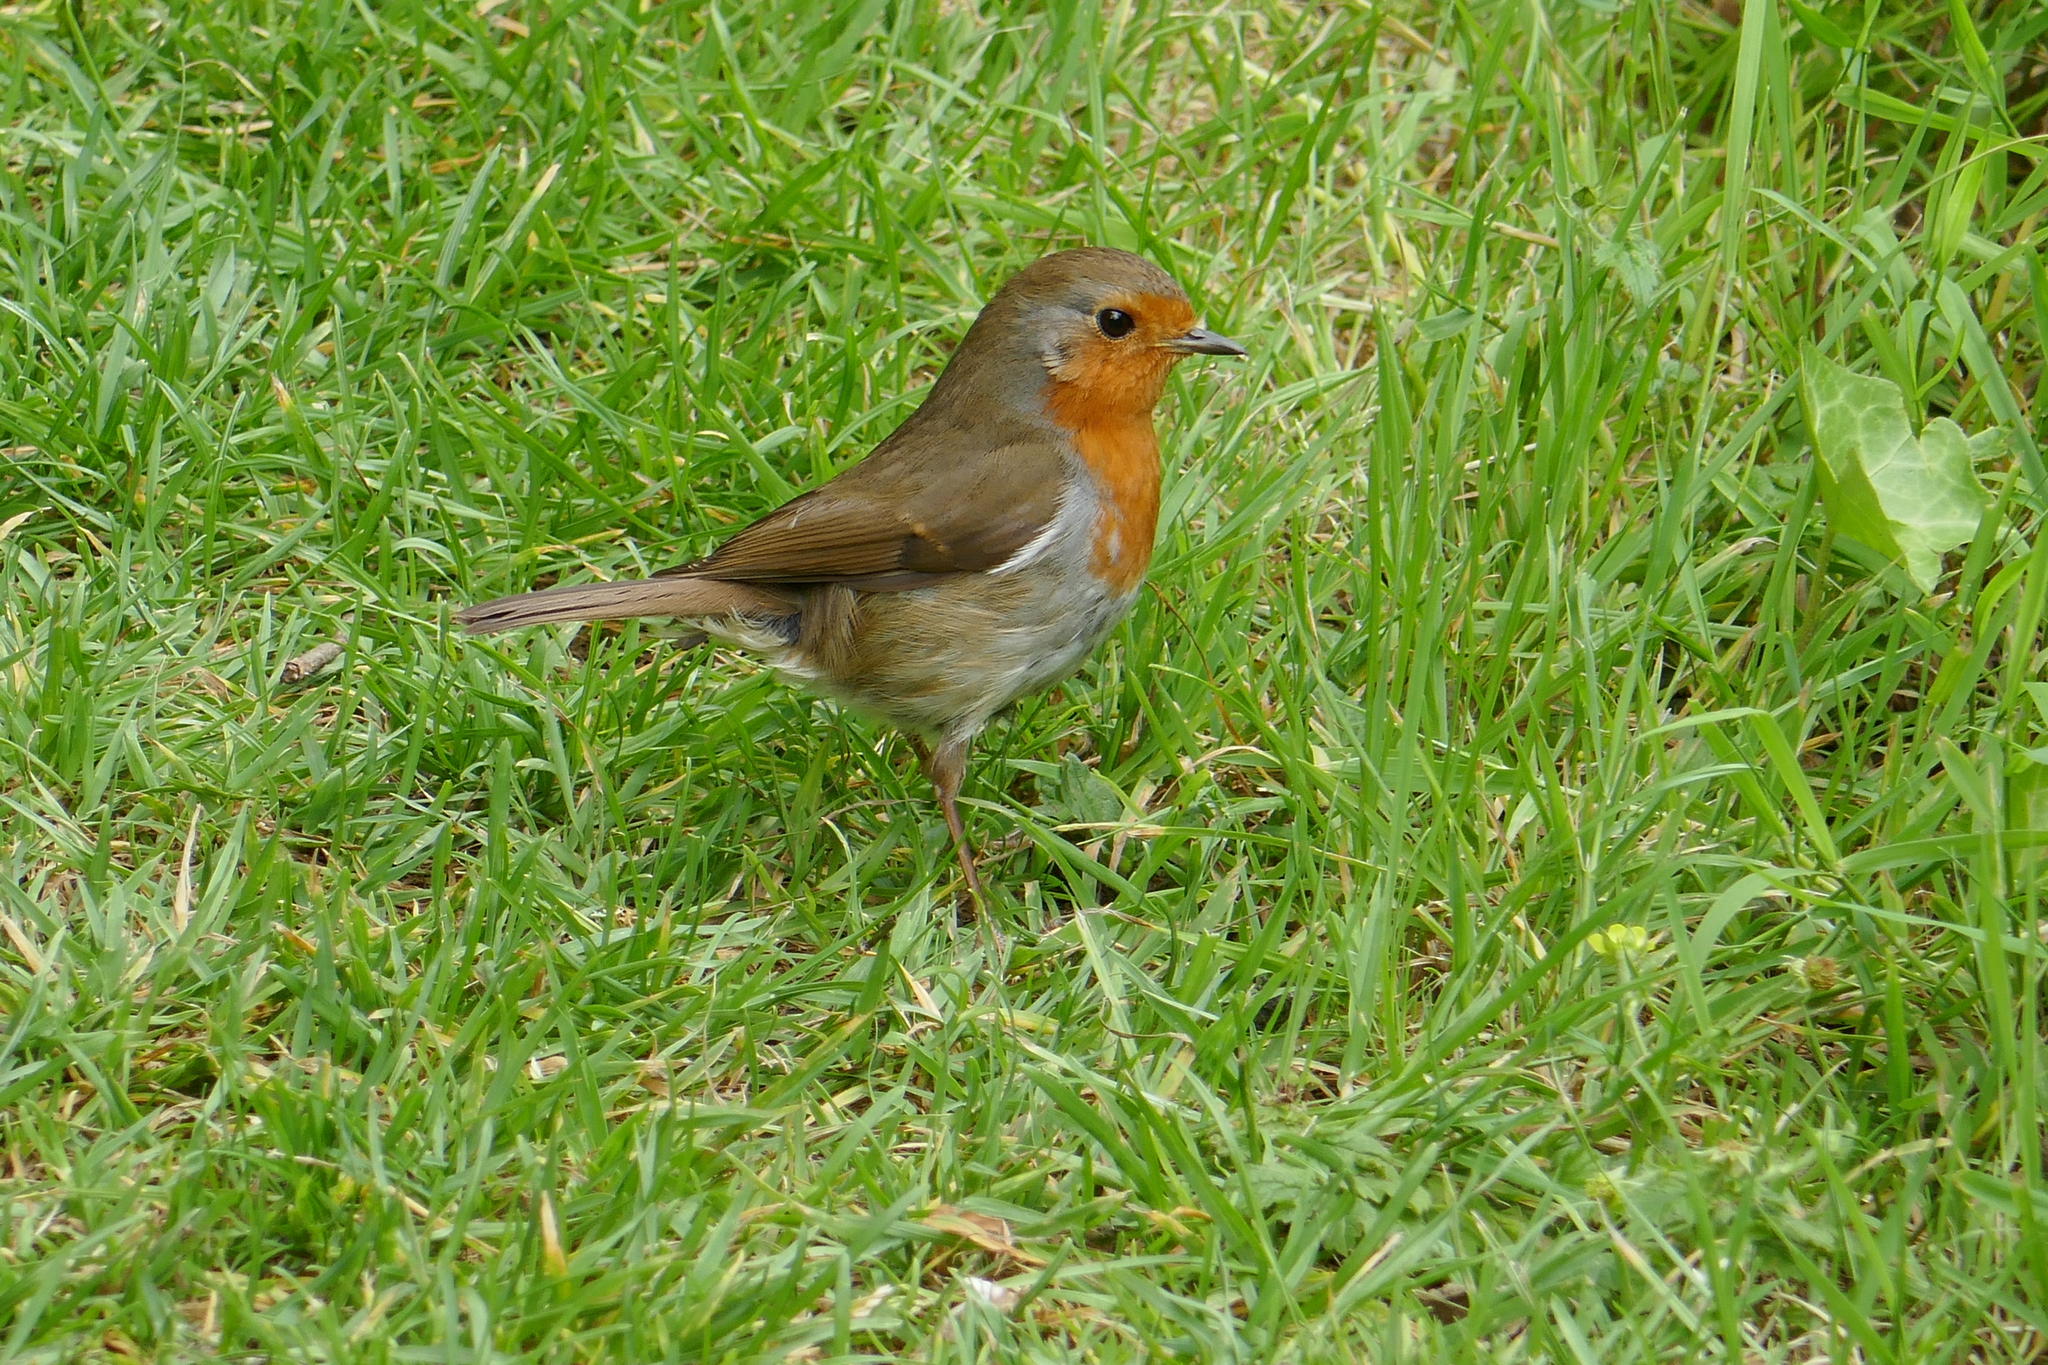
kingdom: Animalia
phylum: Chordata
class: Aves
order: Passeriformes
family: Muscicapidae
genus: Erithacus
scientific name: Erithacus rubecula
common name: European robin
